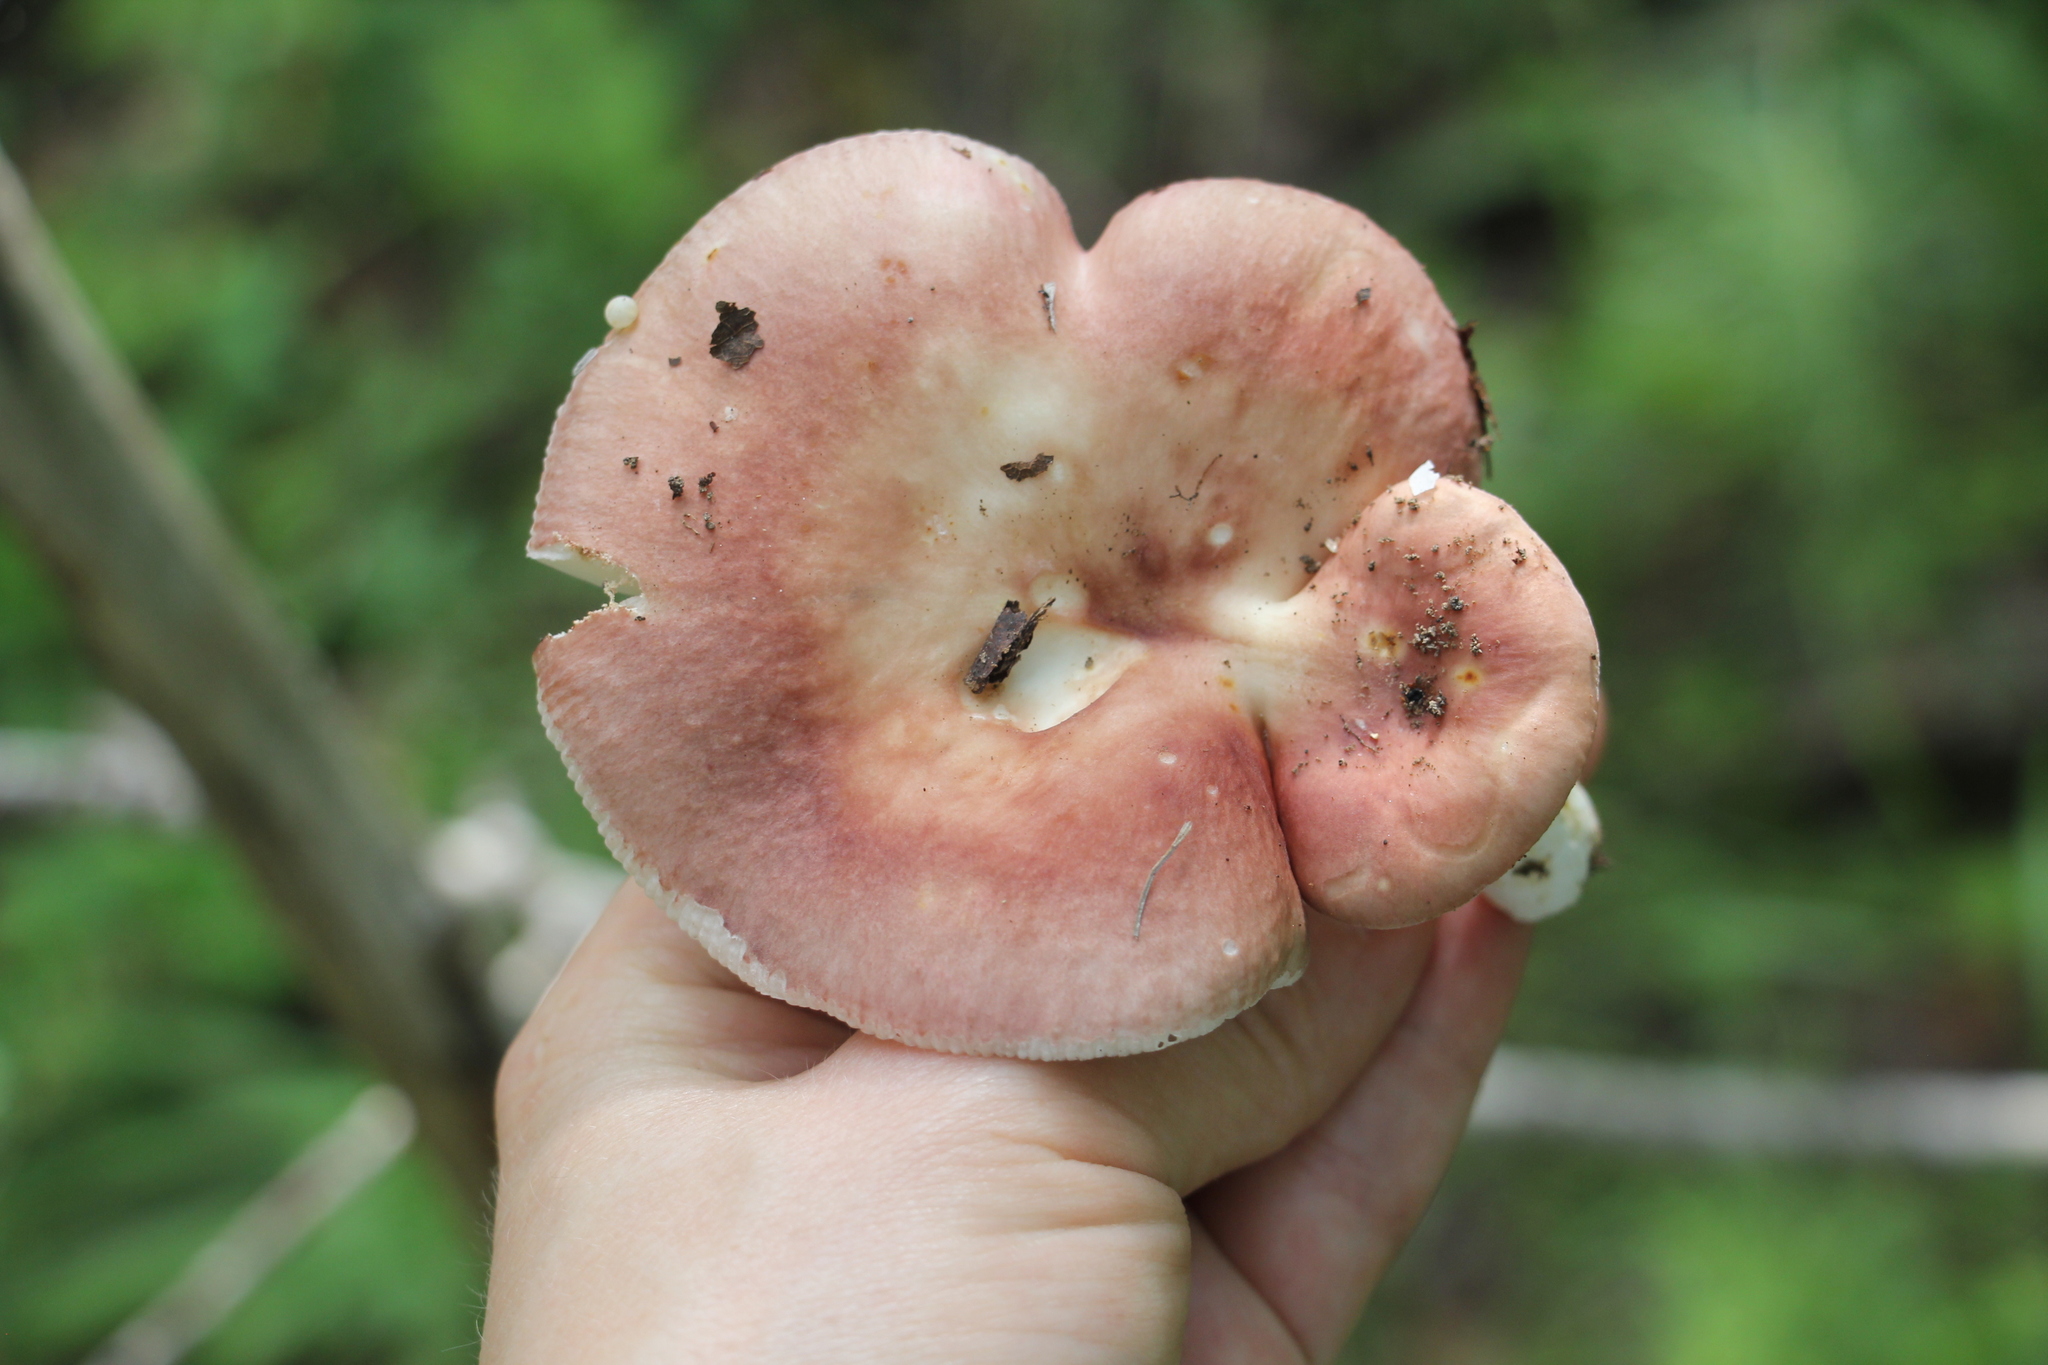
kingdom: Fungi
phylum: Basidiomycota
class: Agaricomycetes
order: Russulales
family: Russulaceae
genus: Russula
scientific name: Russula vesca
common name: Bare-toothed russula
